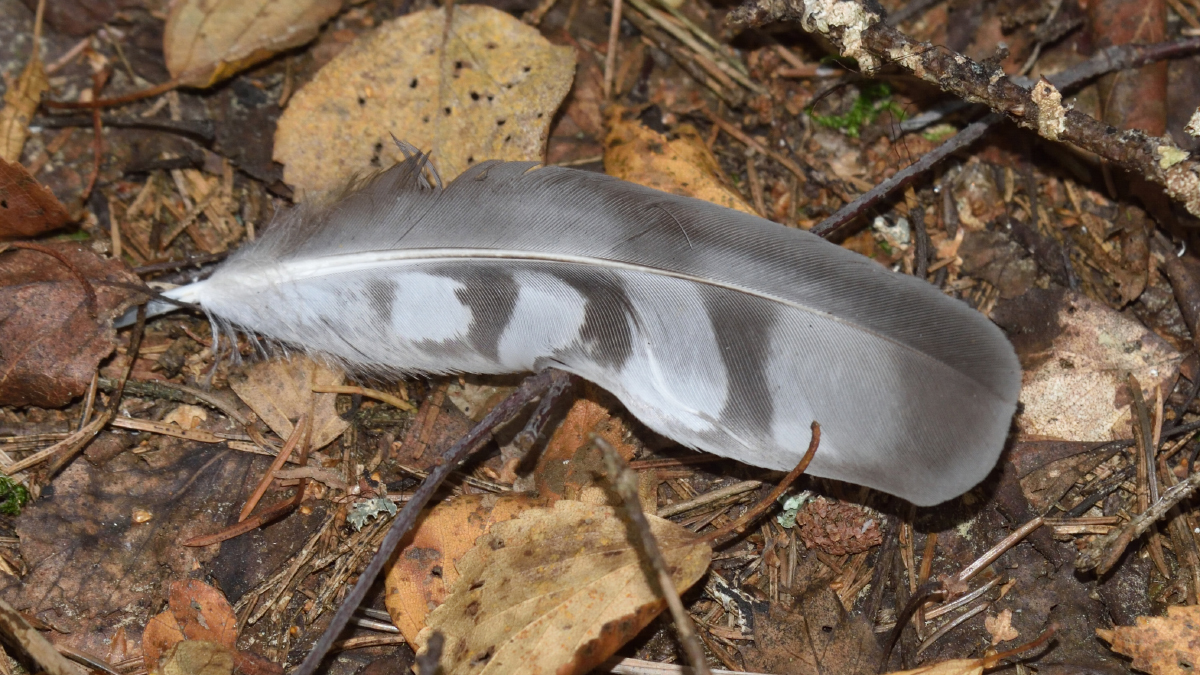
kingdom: Animalia
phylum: Chordata
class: Aves
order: Accipitriformes
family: Accipitridae
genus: Accipiter
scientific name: Accipiter nisus
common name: Eurasian sparrowhawk
